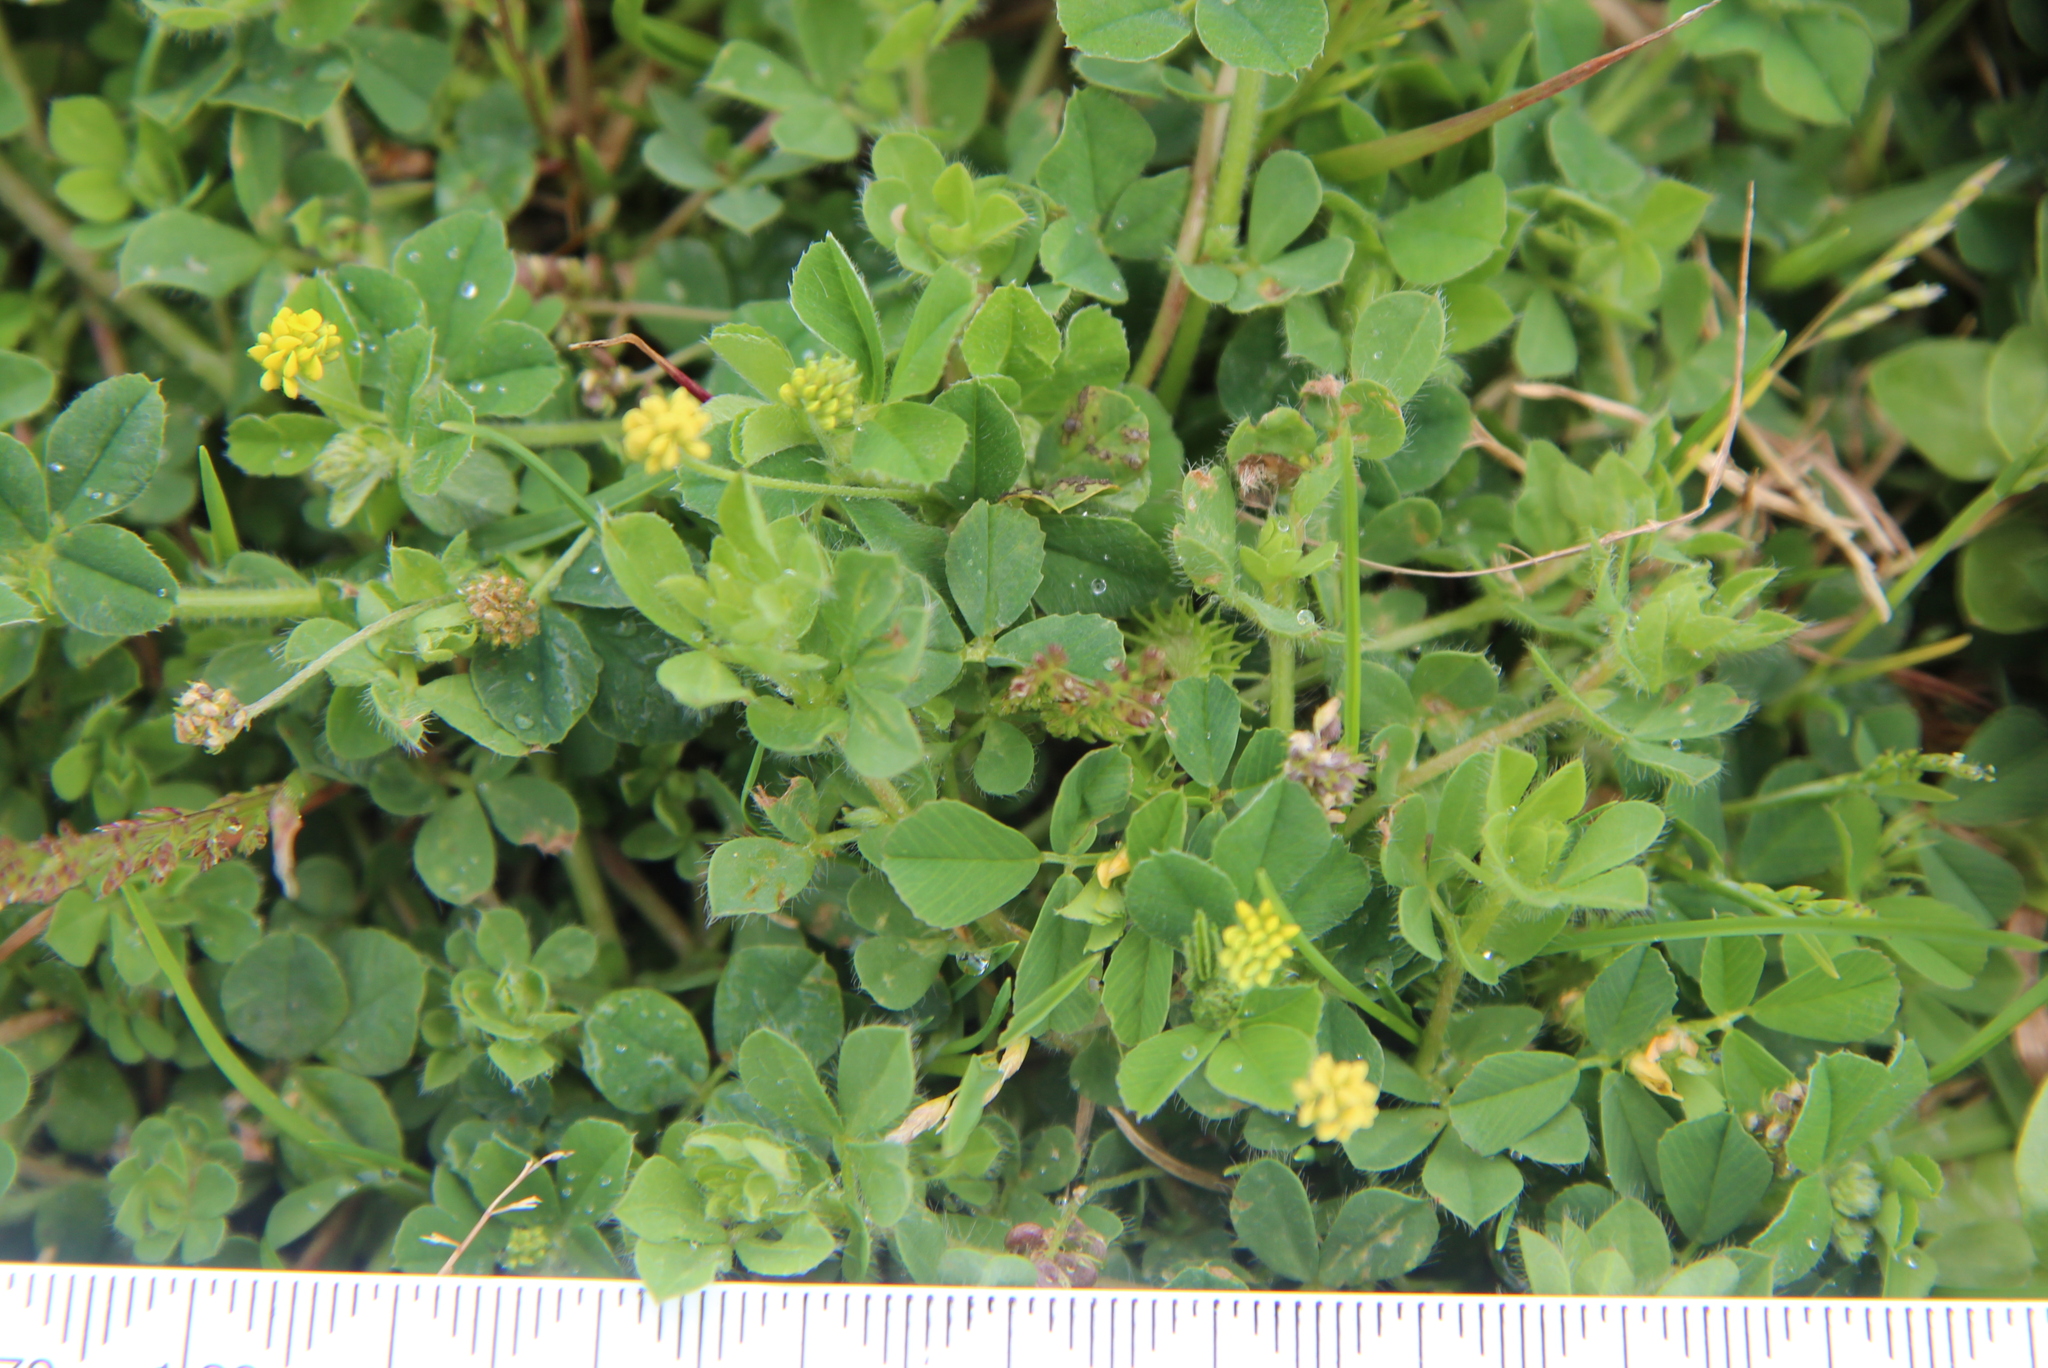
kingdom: Plantae
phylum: Tracheophyta
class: Magnoliopsida
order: Fabales
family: Fabaceae
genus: Medicago
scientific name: Medicago lupulina
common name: Black medick
